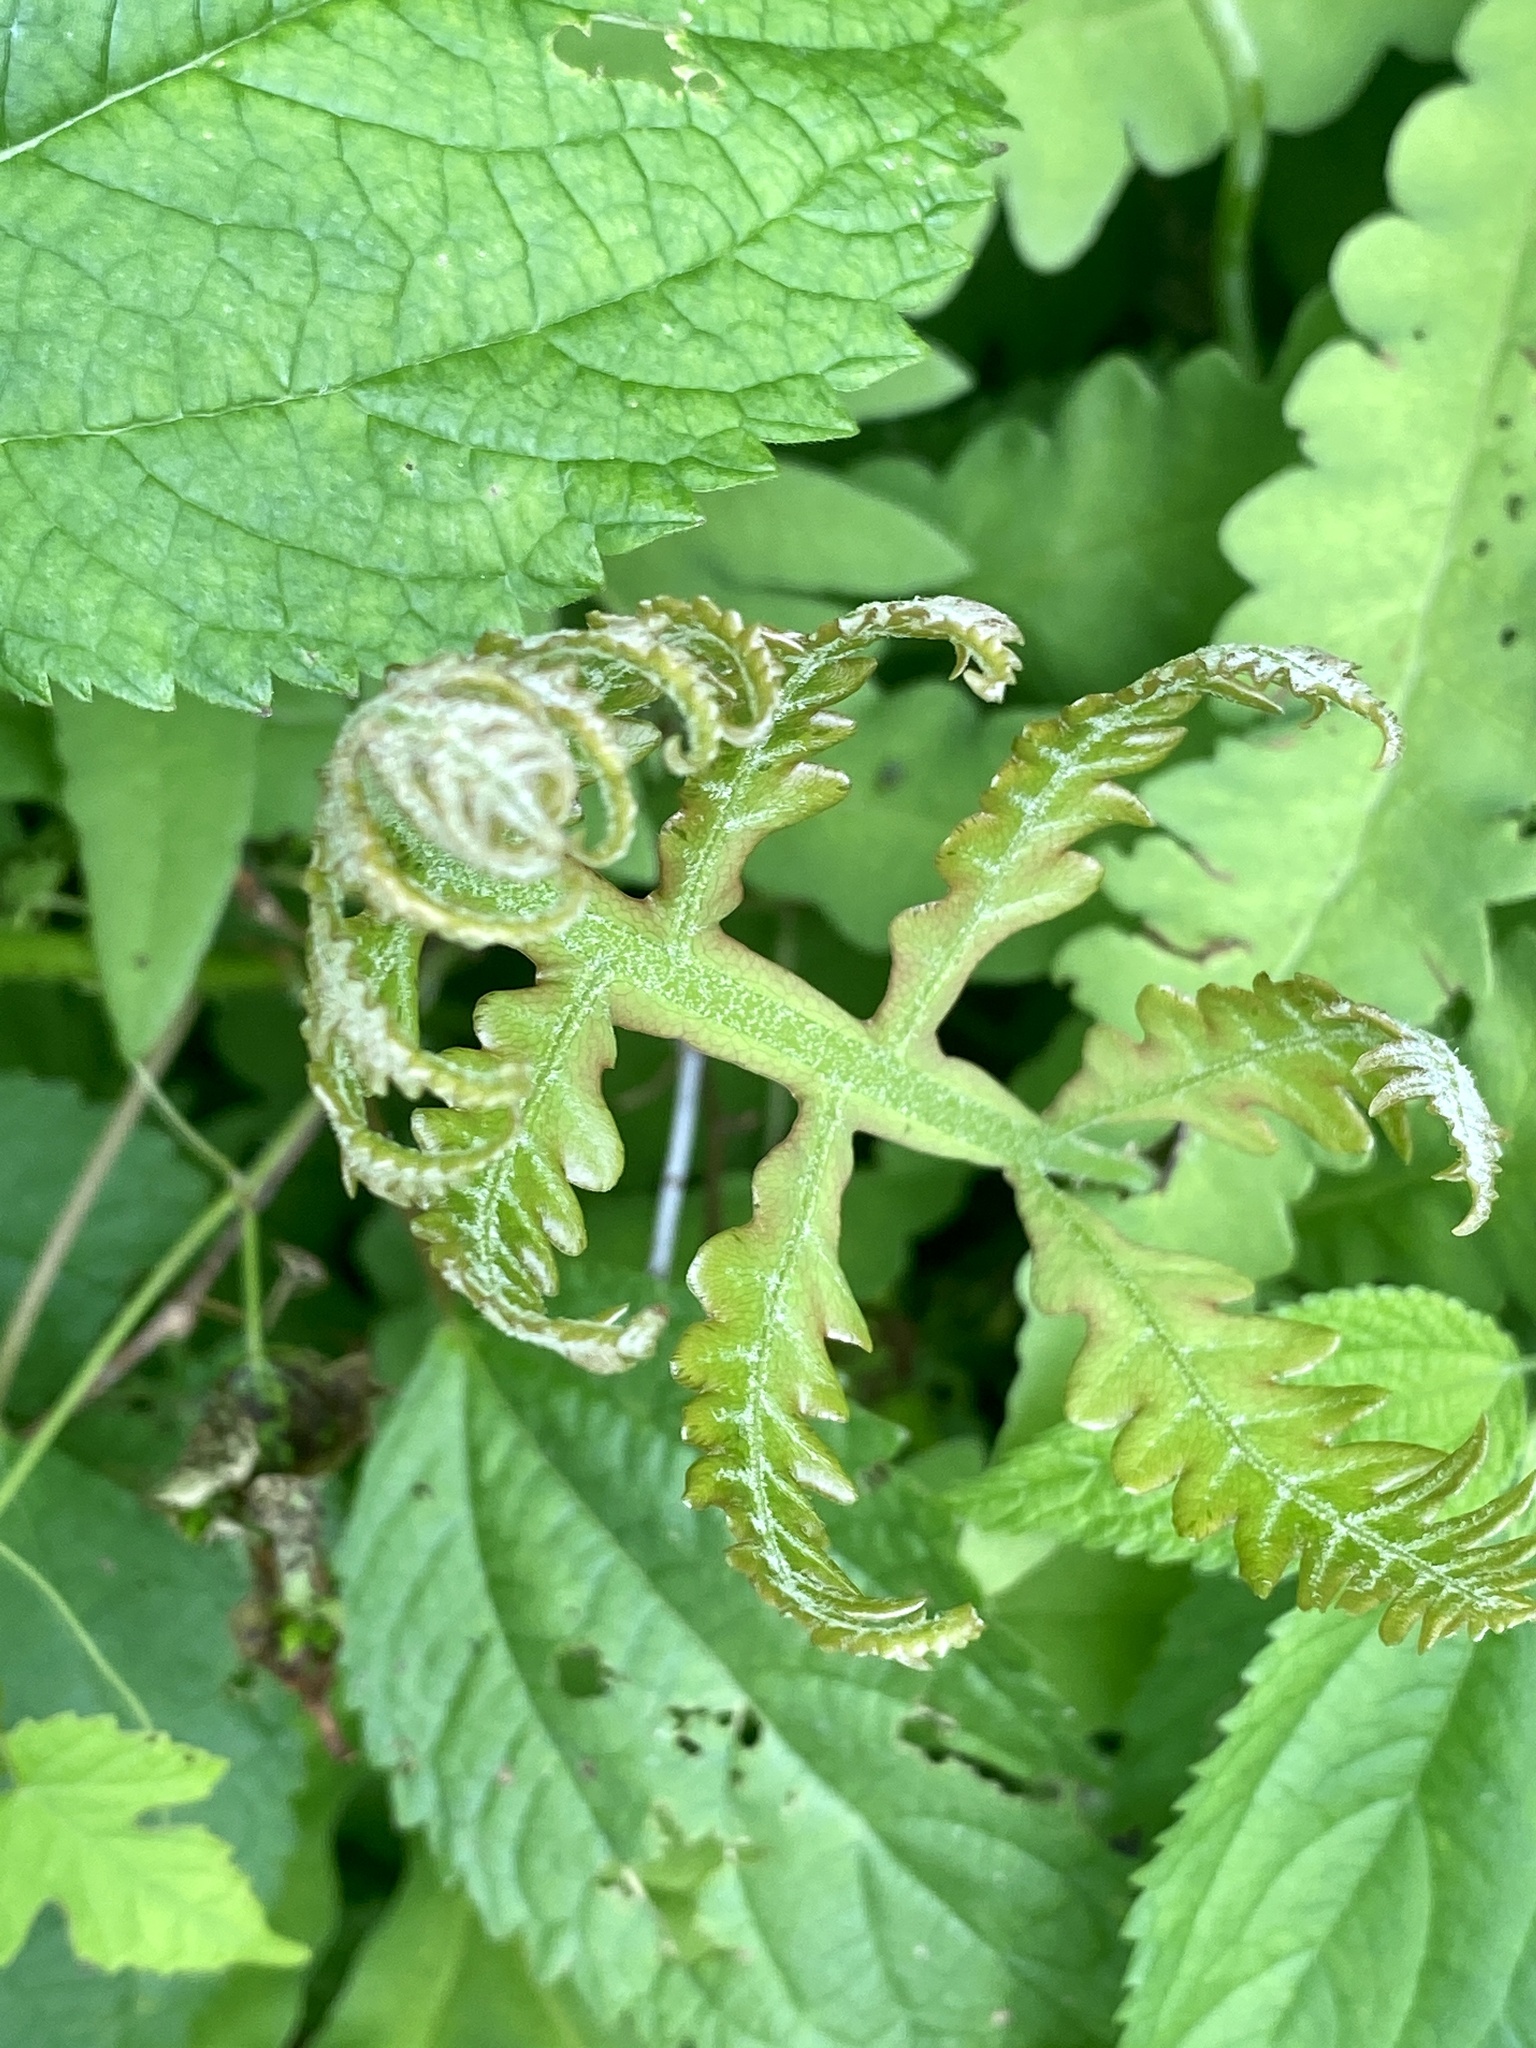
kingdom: Plantae
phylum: Tracheophyta
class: Polypodiopsida
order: Polypodiales
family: Onocleaceae
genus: Onoclea
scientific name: Onoclea sensibilis
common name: Sensitive fern
